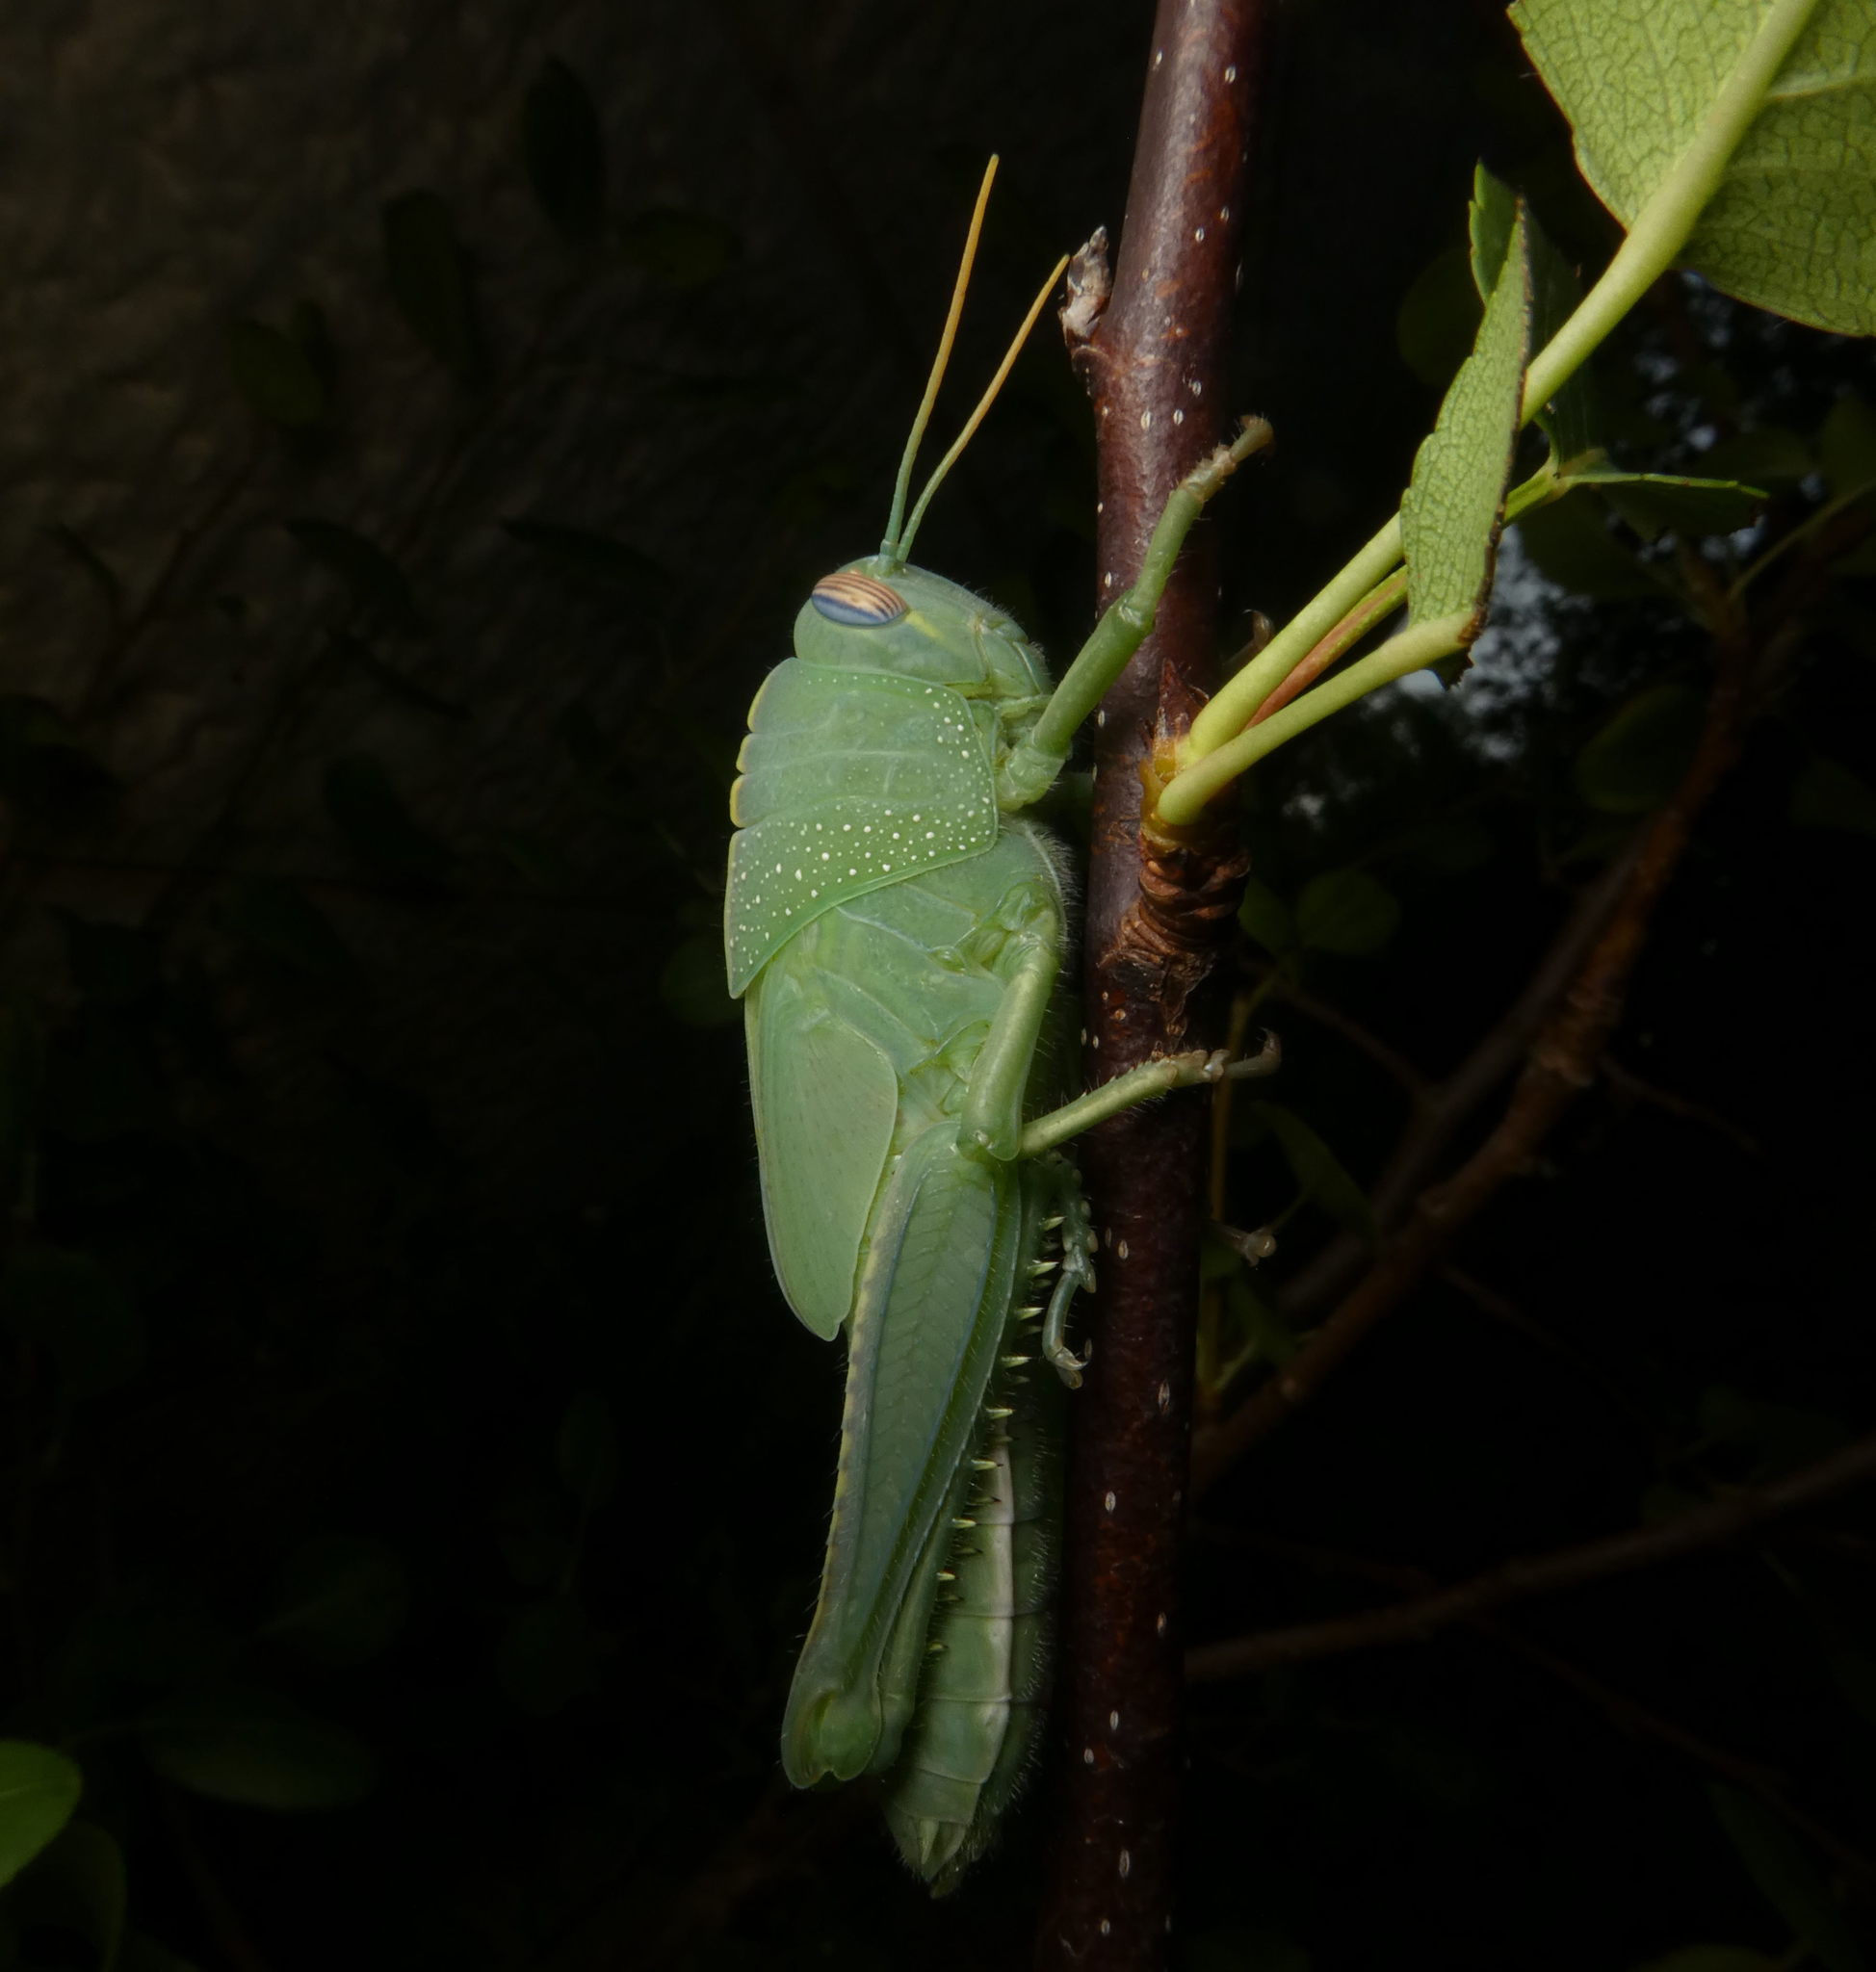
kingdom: Animalia
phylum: Arthropoda
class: Insecta
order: Orthoptera
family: Acrididae
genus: Anacridium
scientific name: Anacridium aegyptium
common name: Egyptian grasshopper
